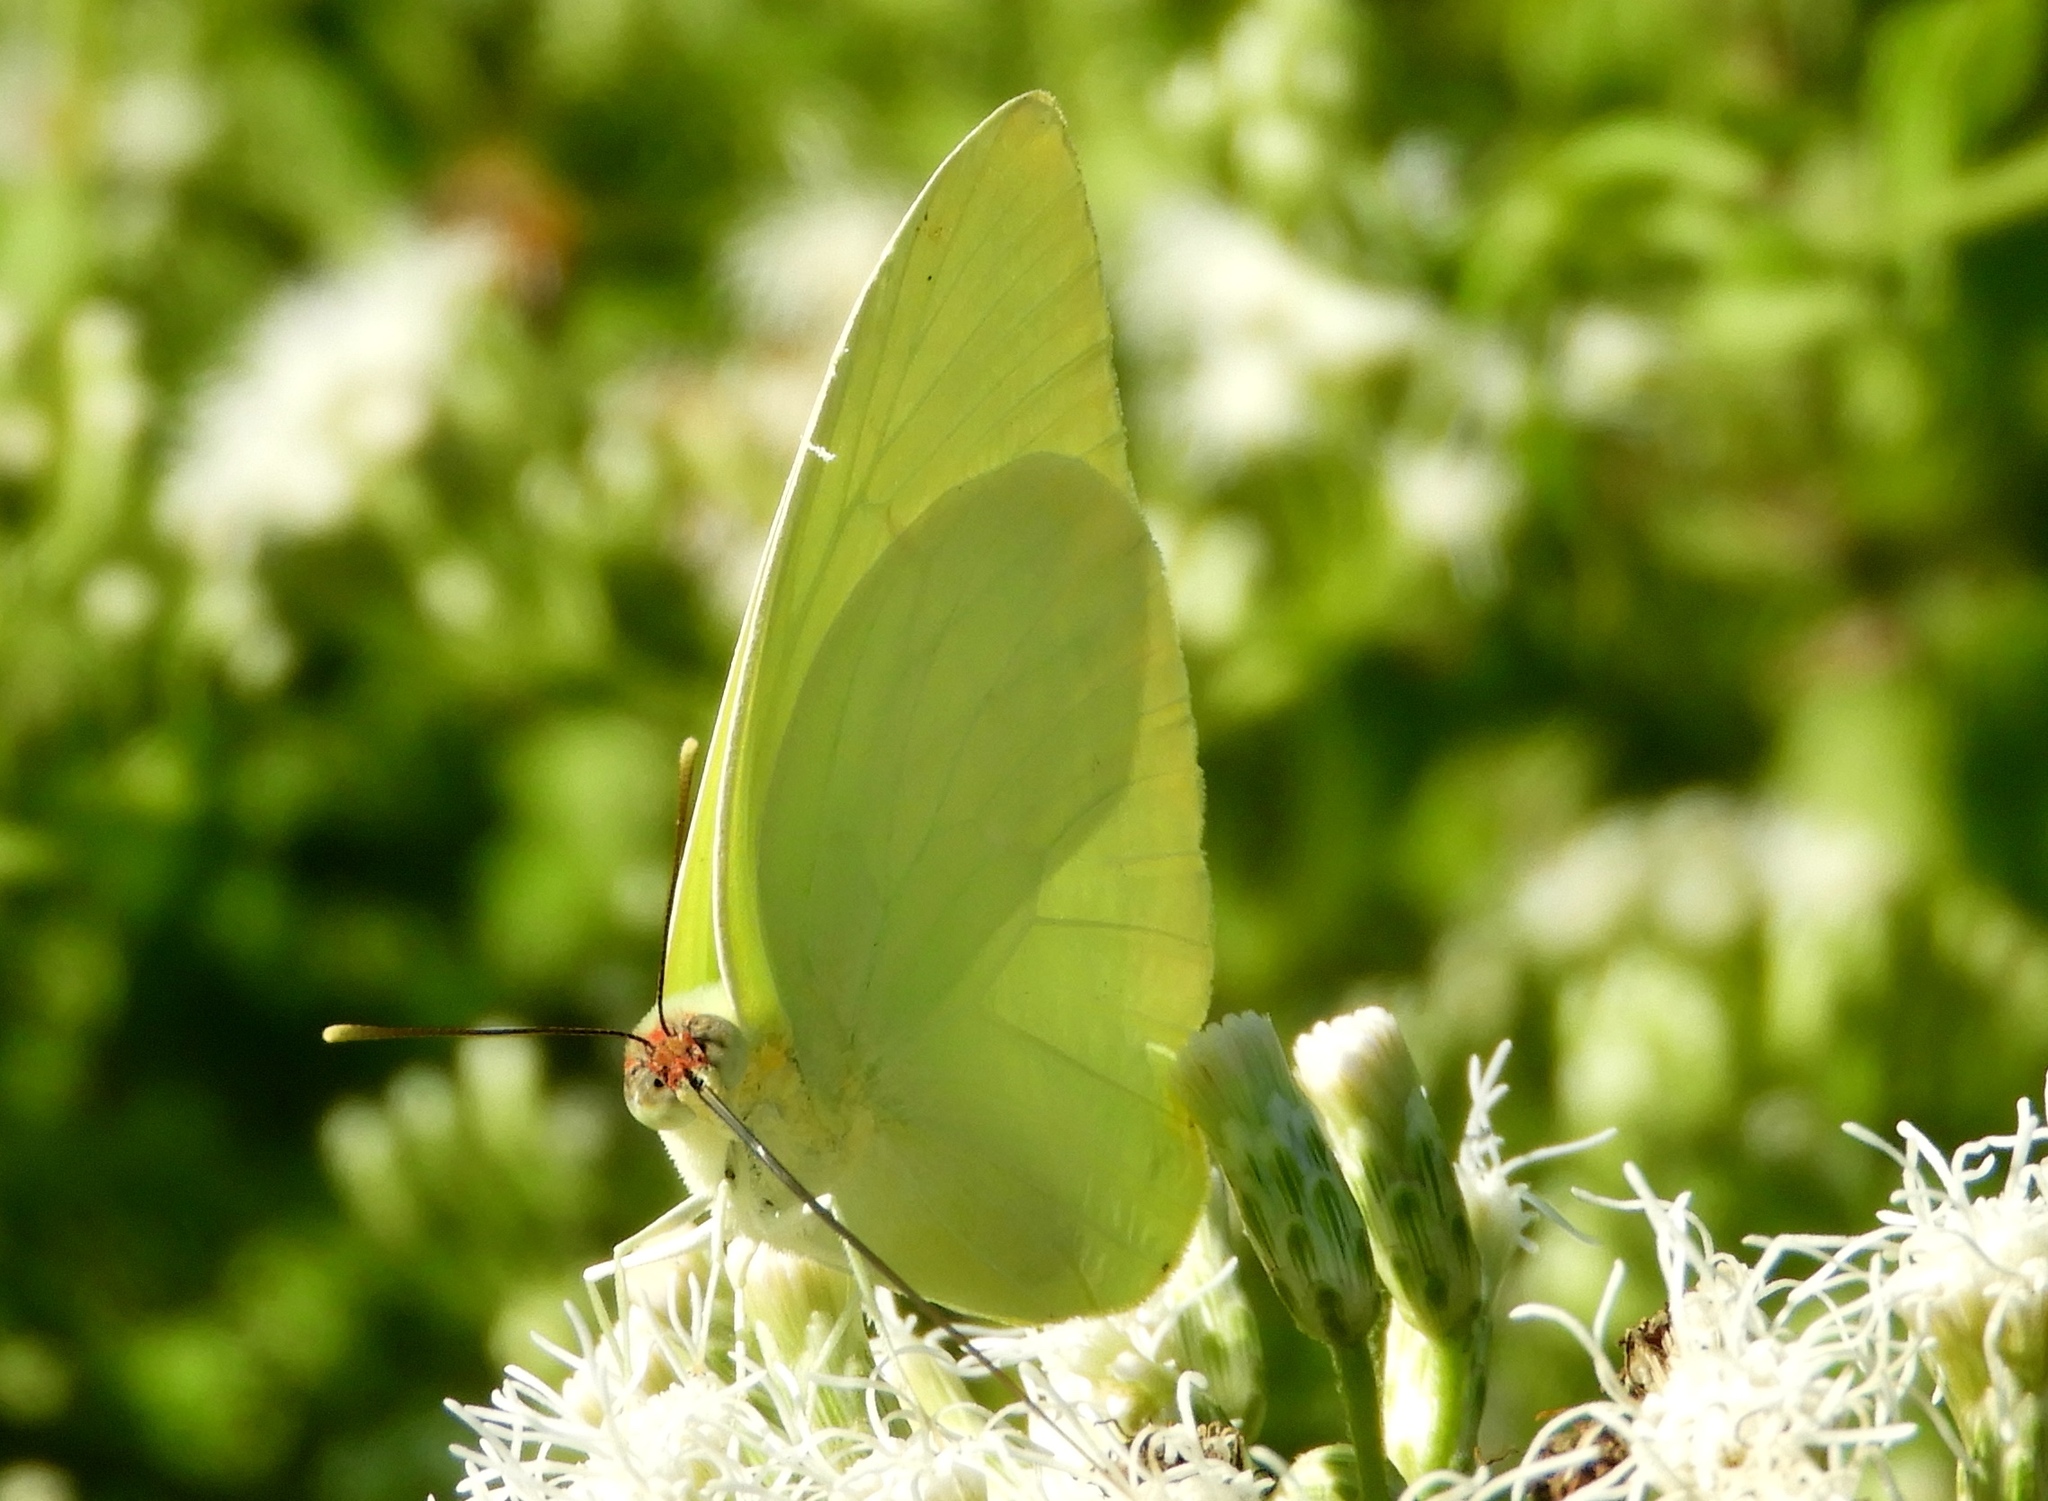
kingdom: Animalia
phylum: Arthropoda
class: Insecta
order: Lepidoptera
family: Pieridae
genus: Aphrissa
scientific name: Aphrissa statira
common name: Statira sulphur
